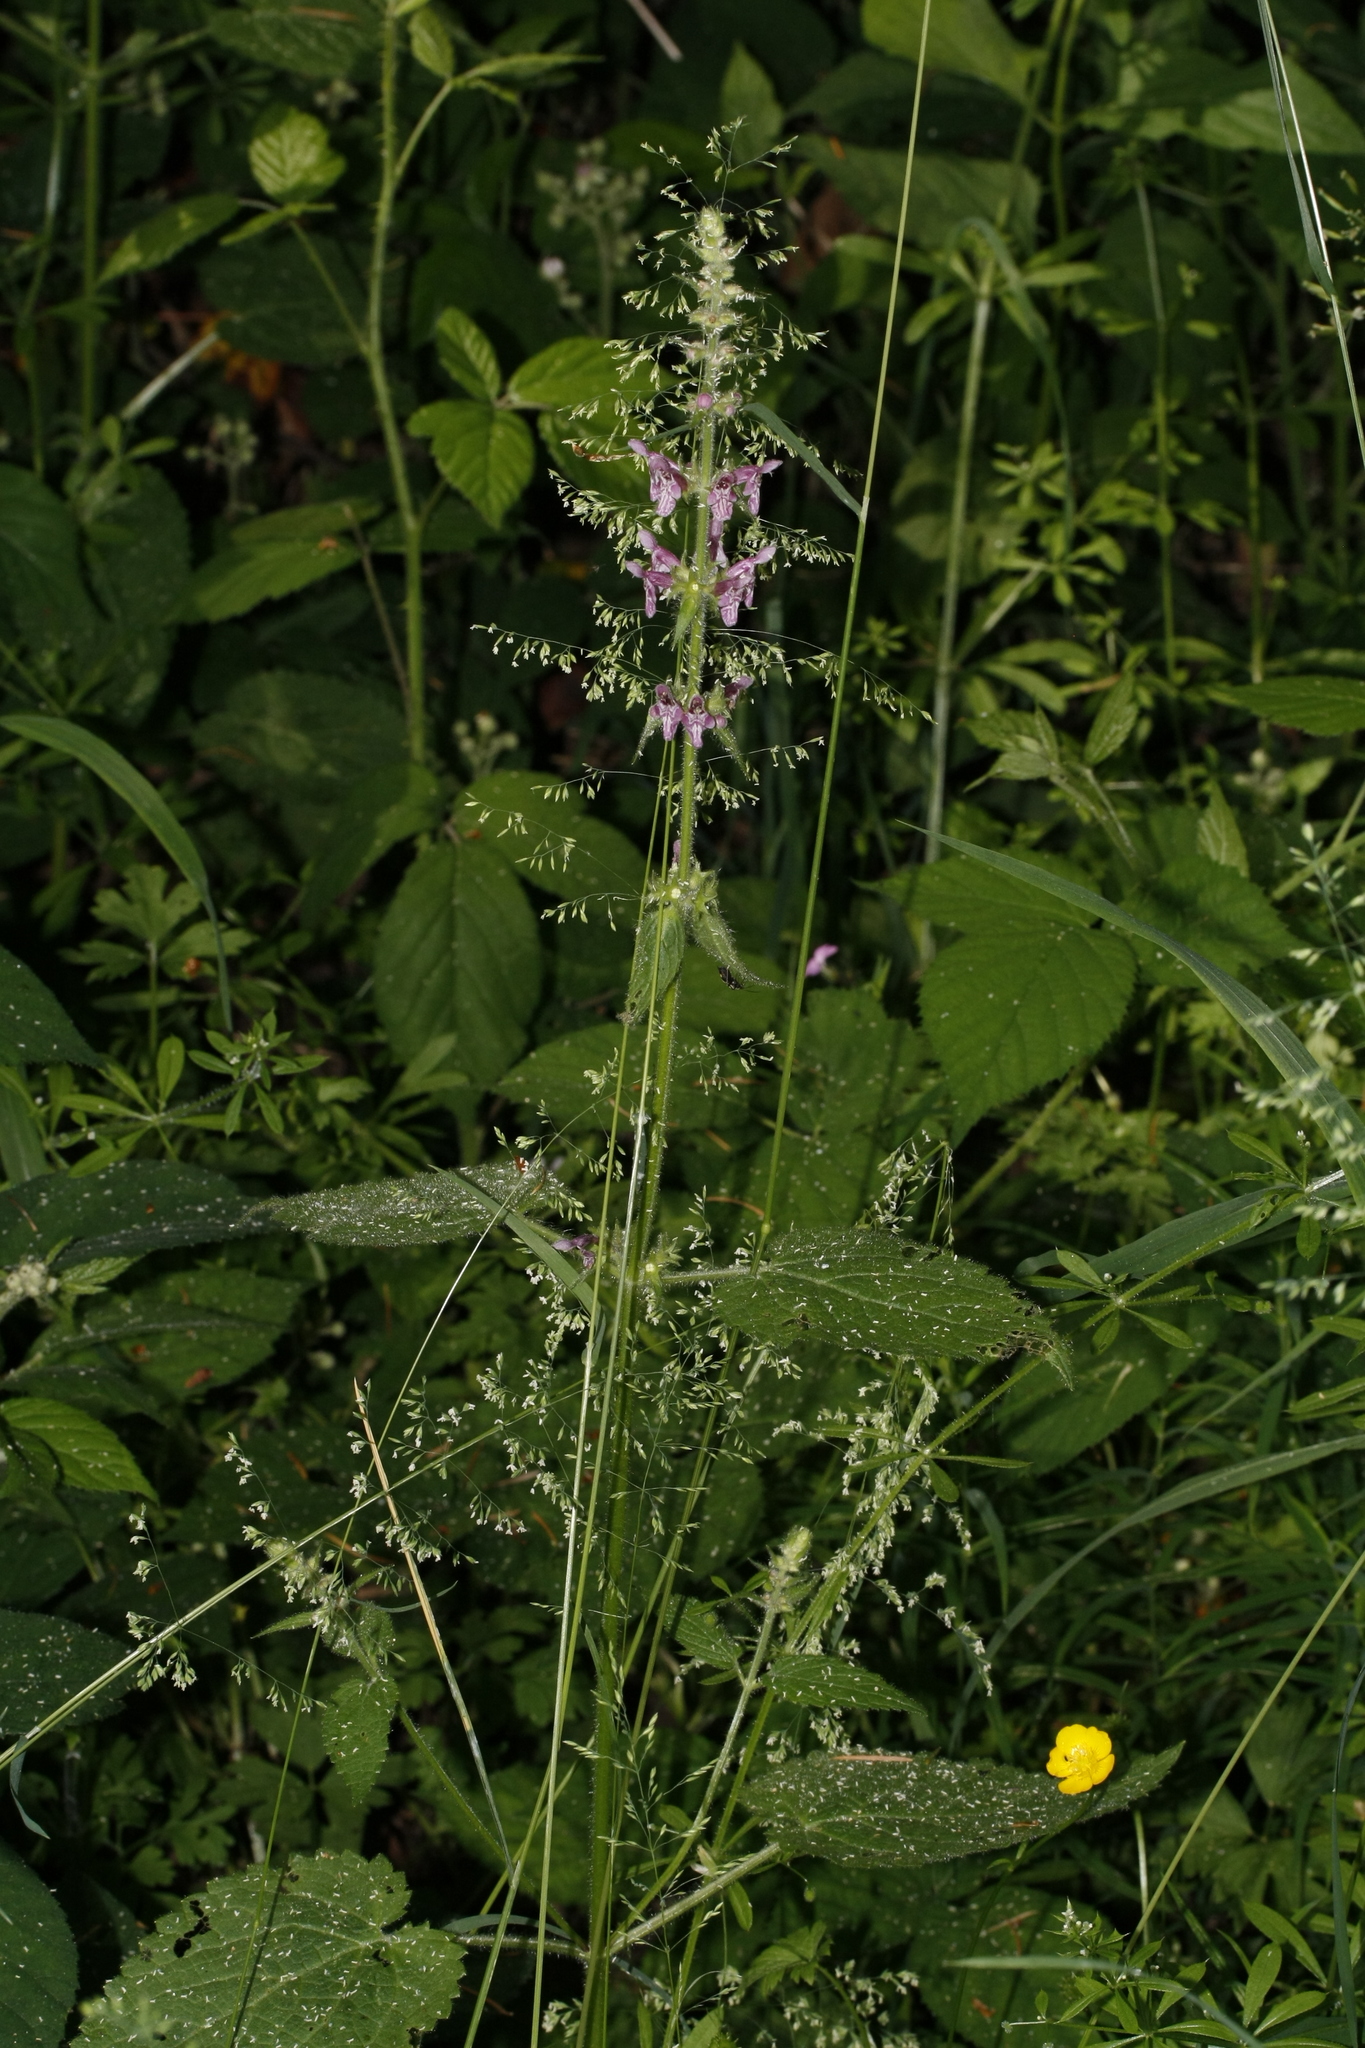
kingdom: Plantae
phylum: Tracheophyta
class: Magnoliopsida
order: Lamiales
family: Lamiaceae
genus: Stachys
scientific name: Stachys sylvatica
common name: Hedge woundwort
